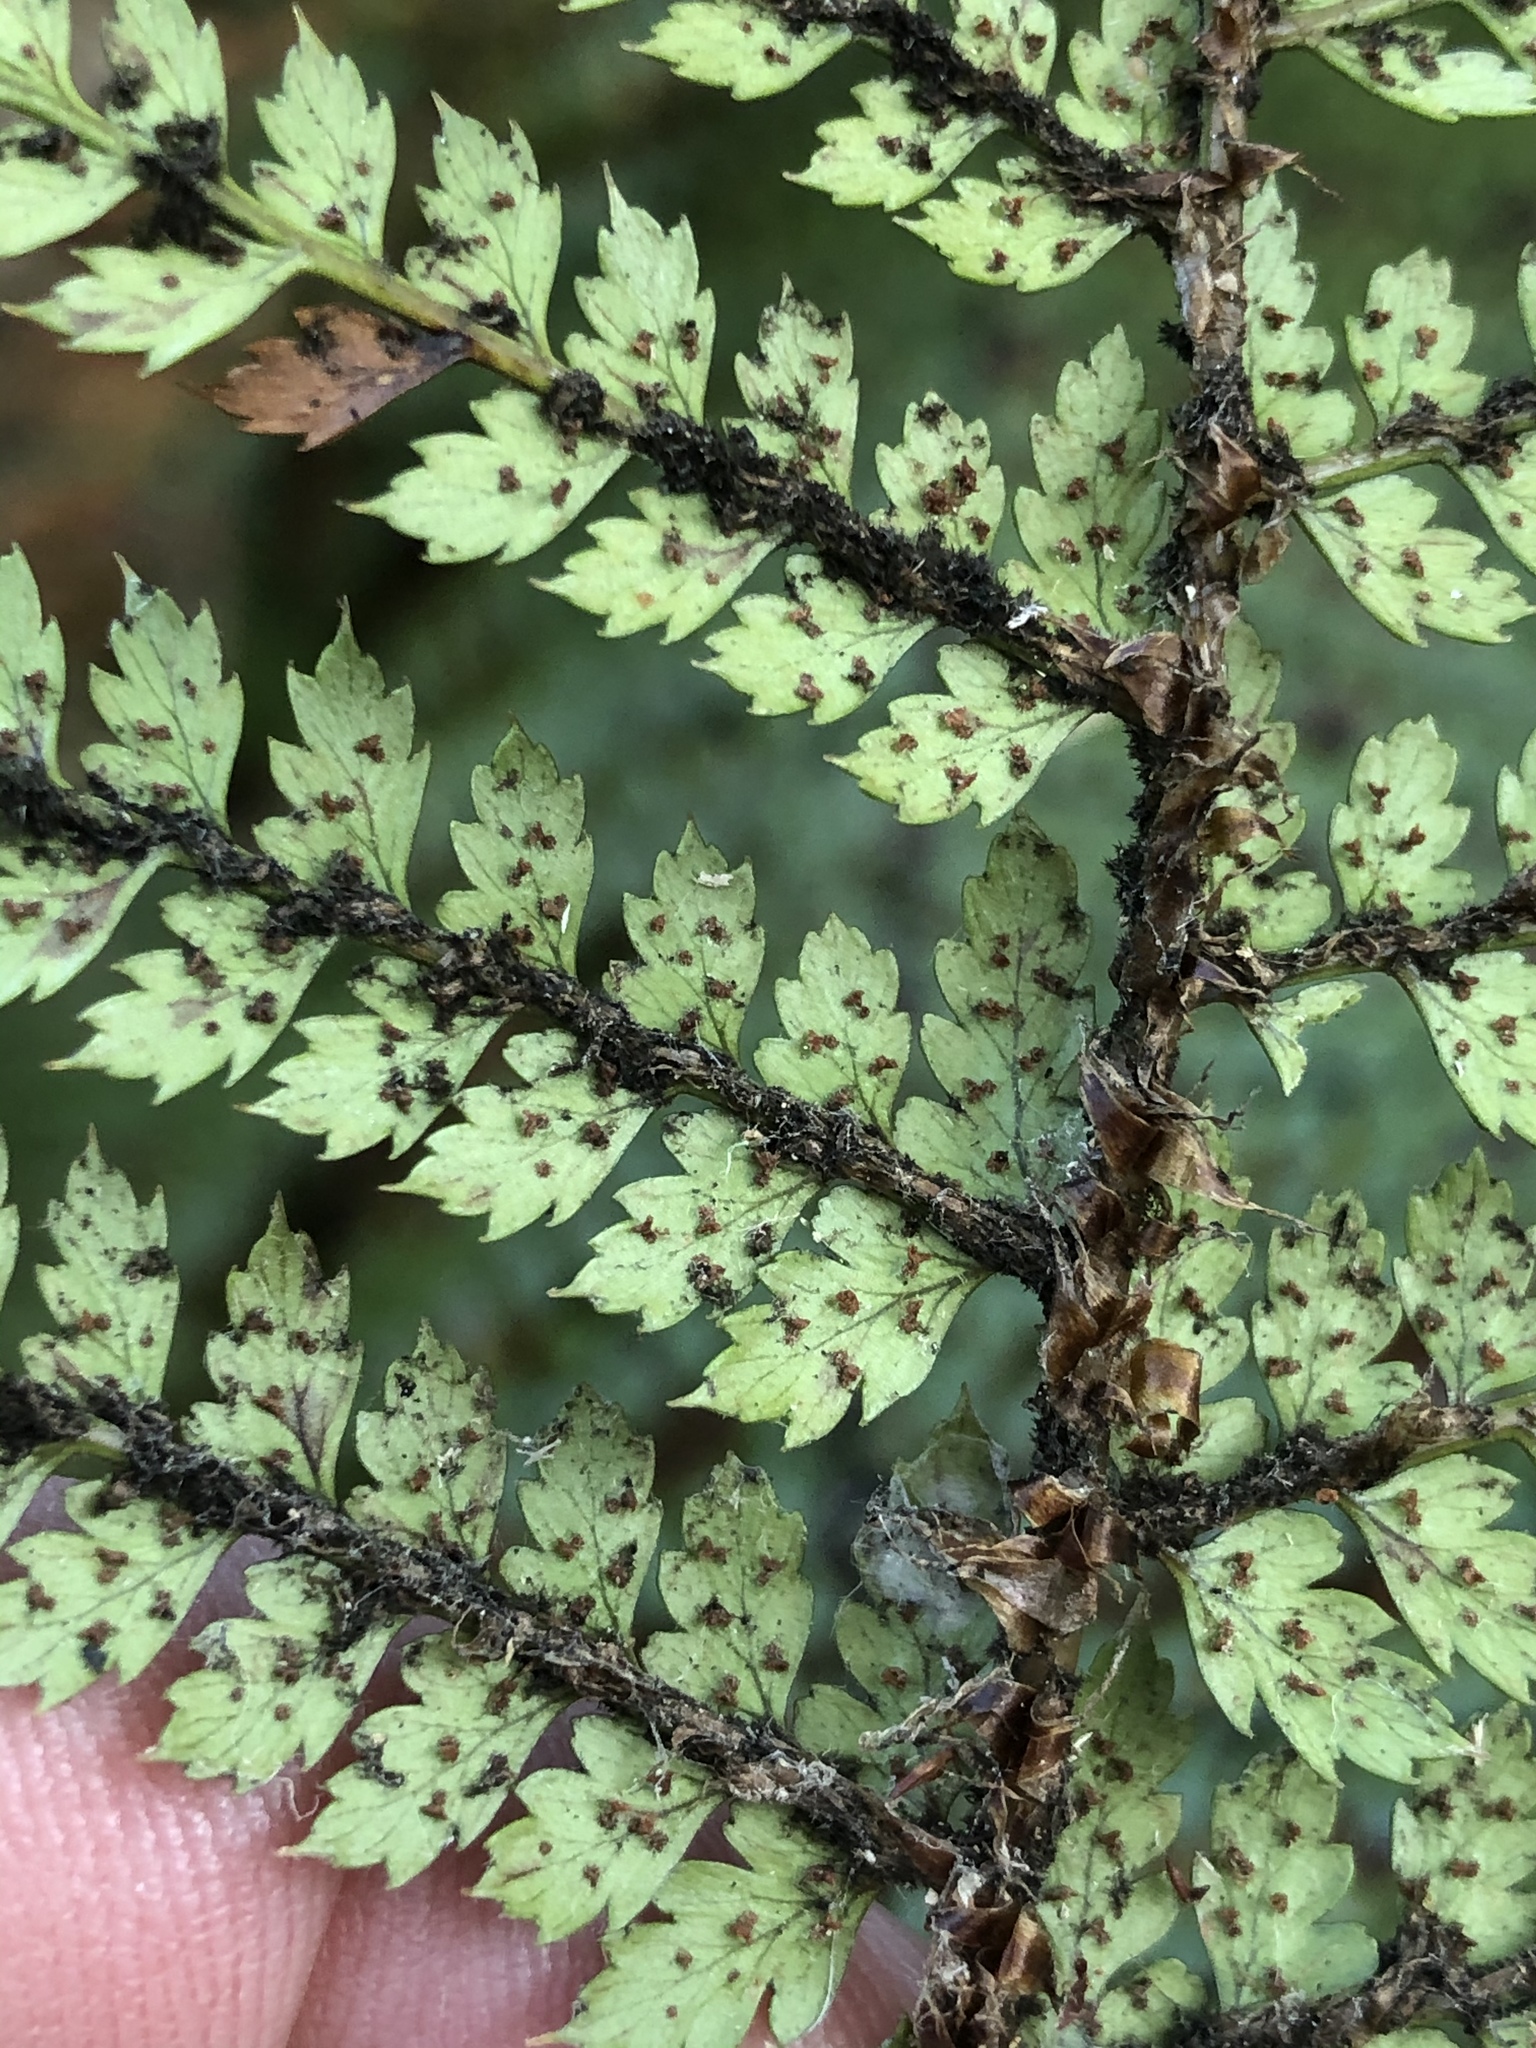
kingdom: Plantae
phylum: Tracheophyta
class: Polypodiopsida
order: Polypodiales
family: Dryopteridaceae
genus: Polystichum
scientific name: Polystichum vestitum
